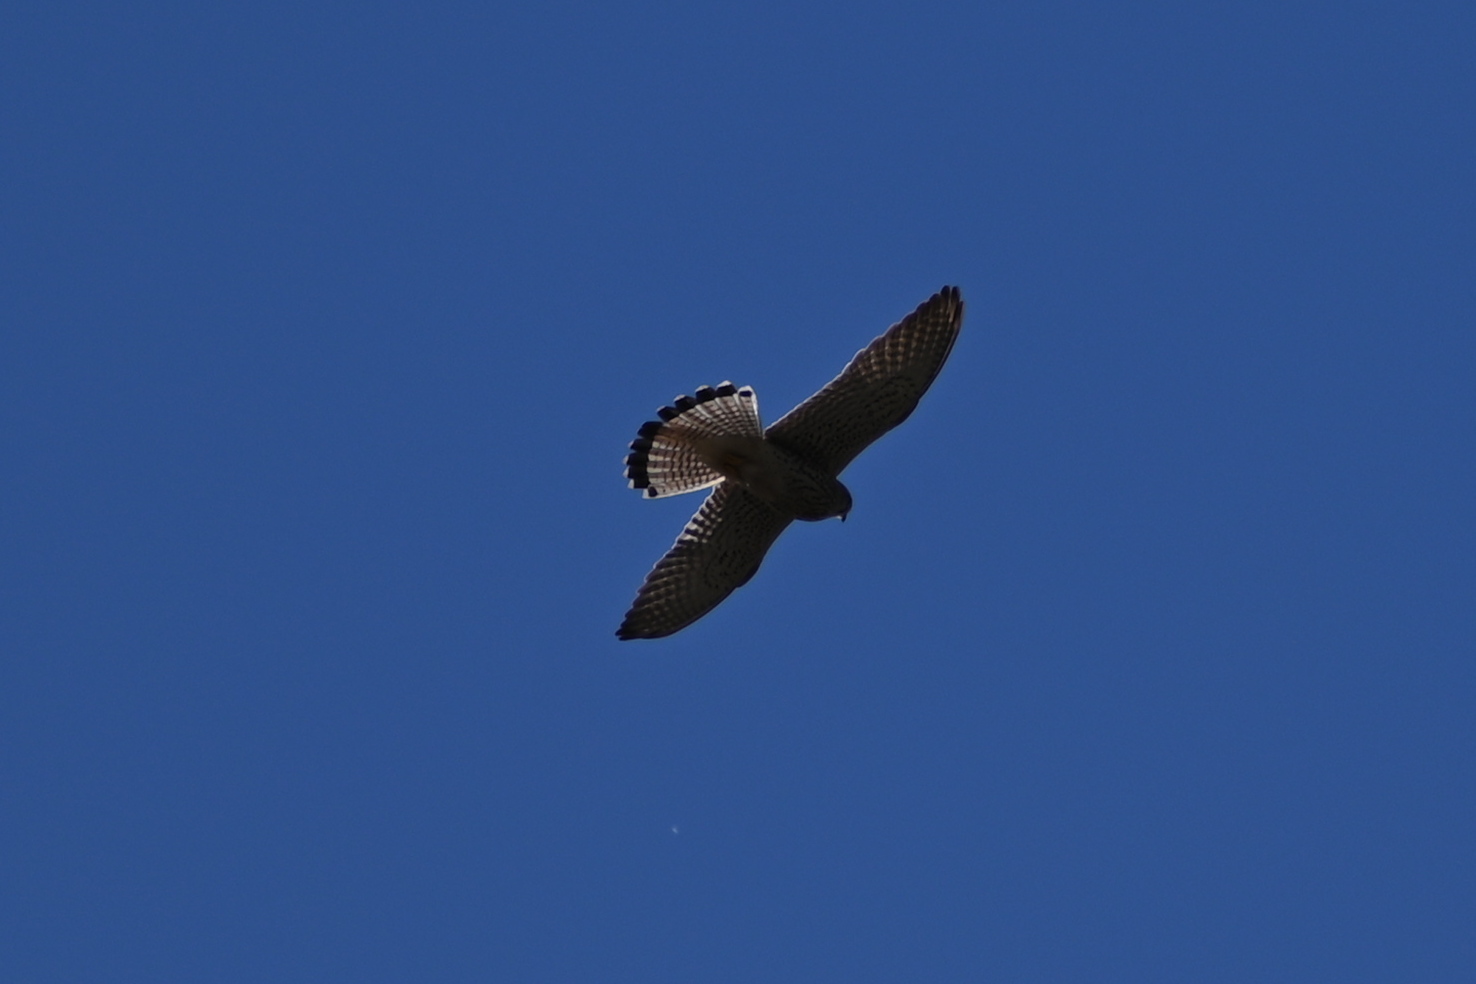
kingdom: Animalia
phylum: Chordata
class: Aves
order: Falconiformes
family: Falconidae
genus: Falco
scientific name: Falco tinnunculus
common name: Common kestrel
